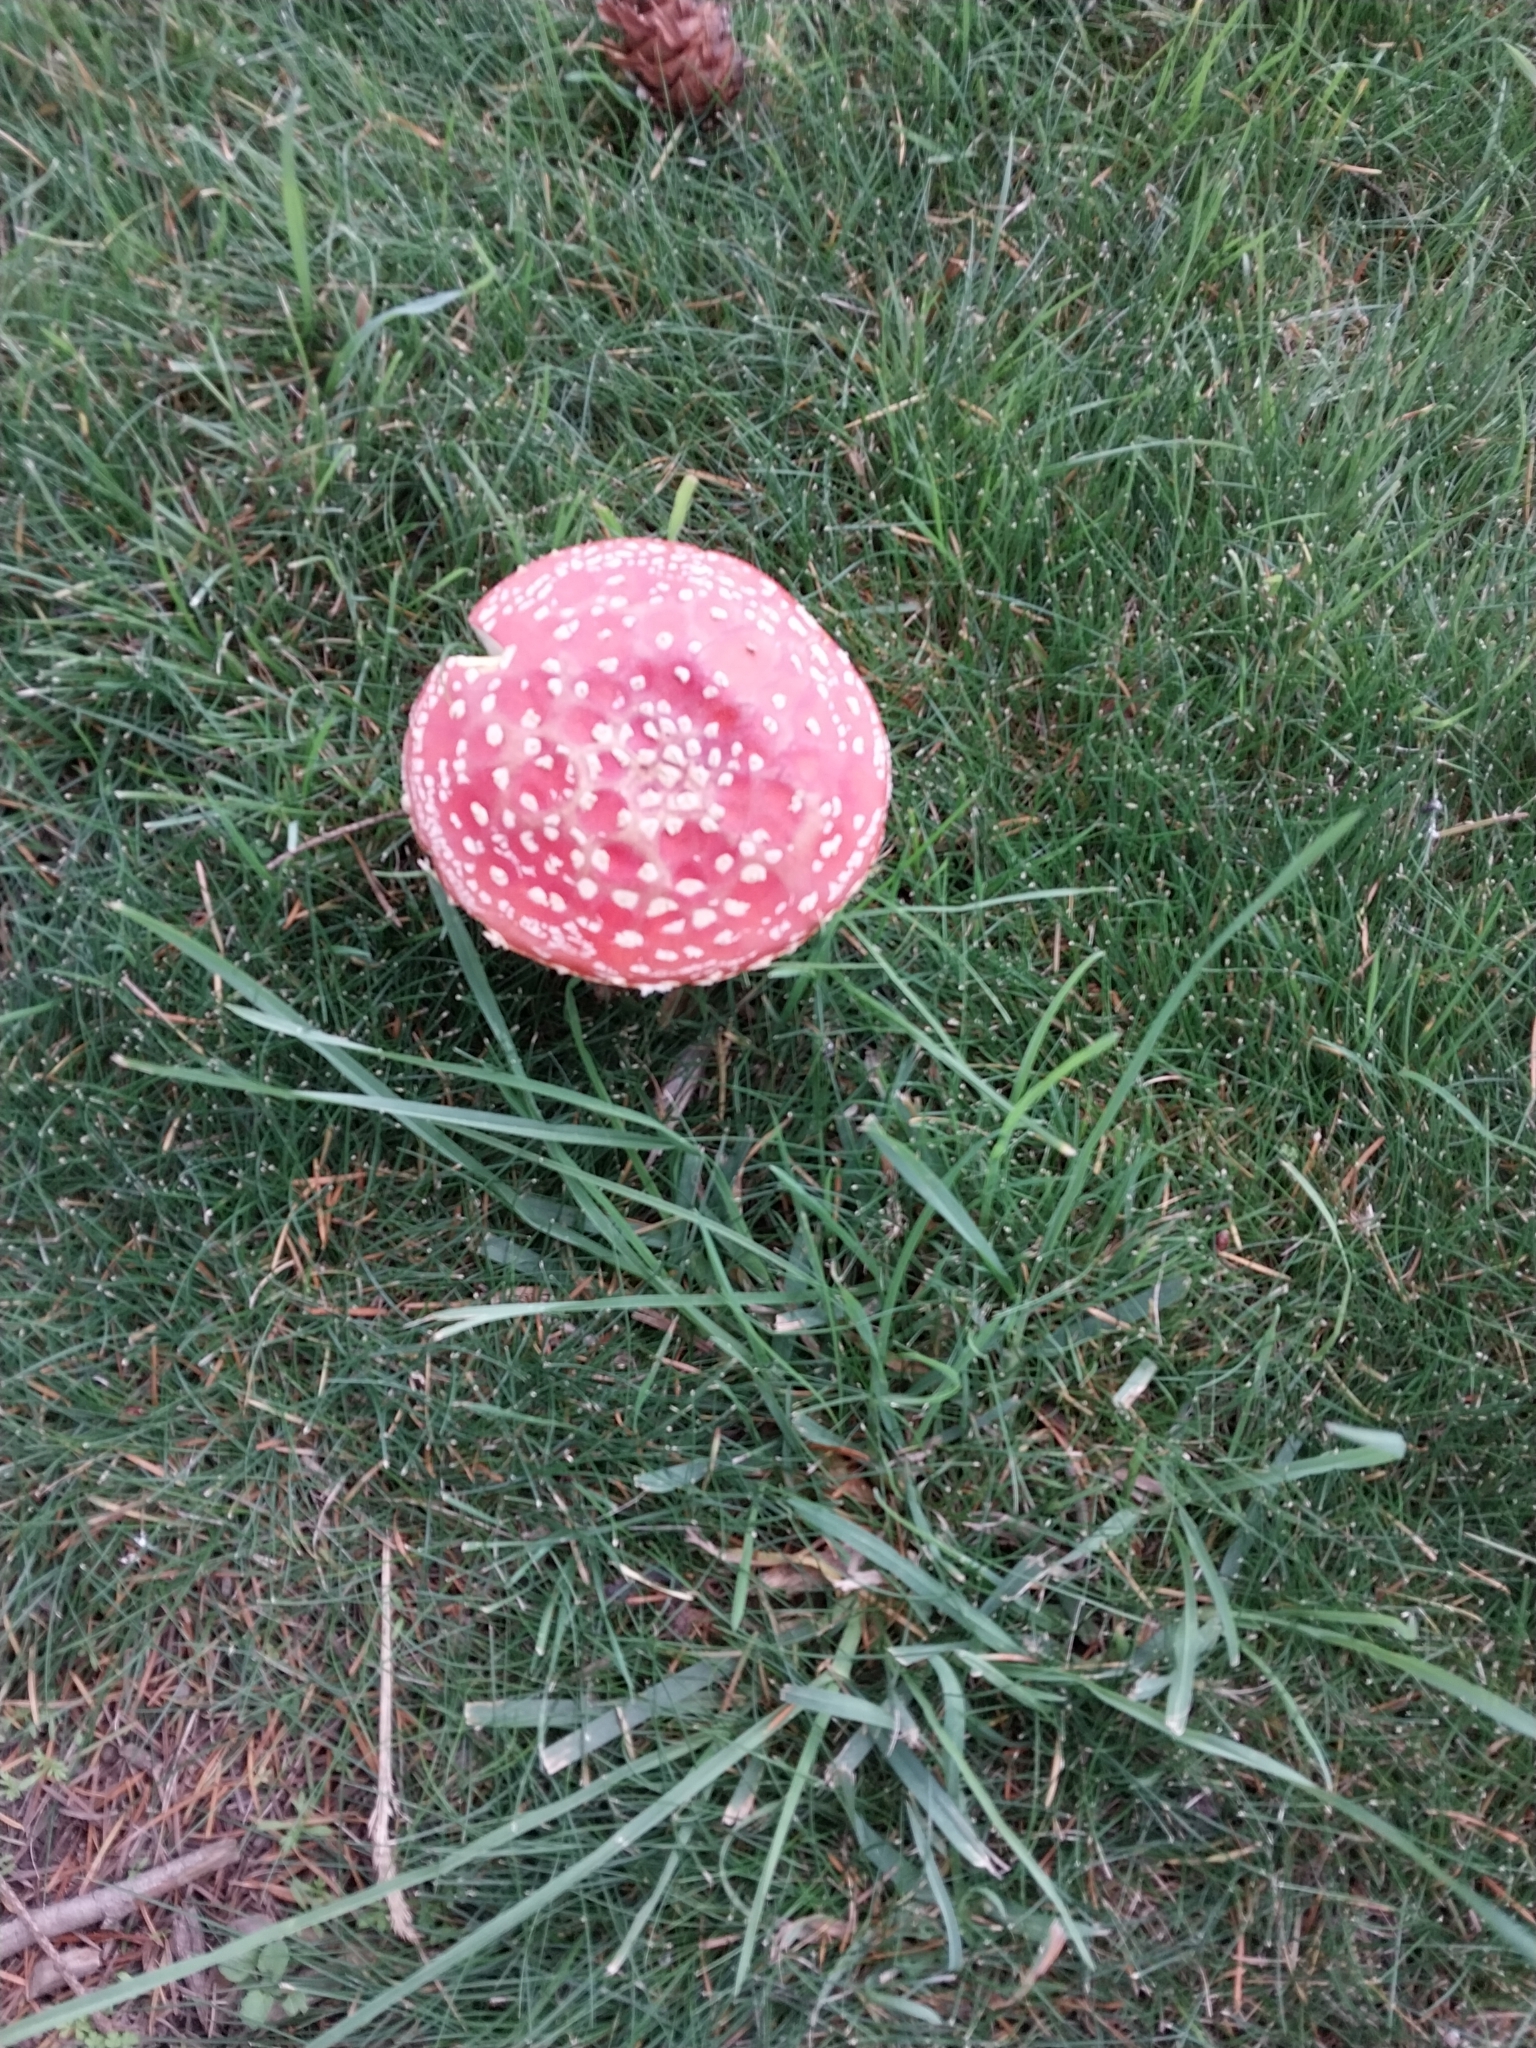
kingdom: Fungi
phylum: Basidiomycota
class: Agaricomycetes
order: Agaricales
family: Amanitaceae
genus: Amanita
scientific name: Amanita muscaria
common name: Fly agaric
